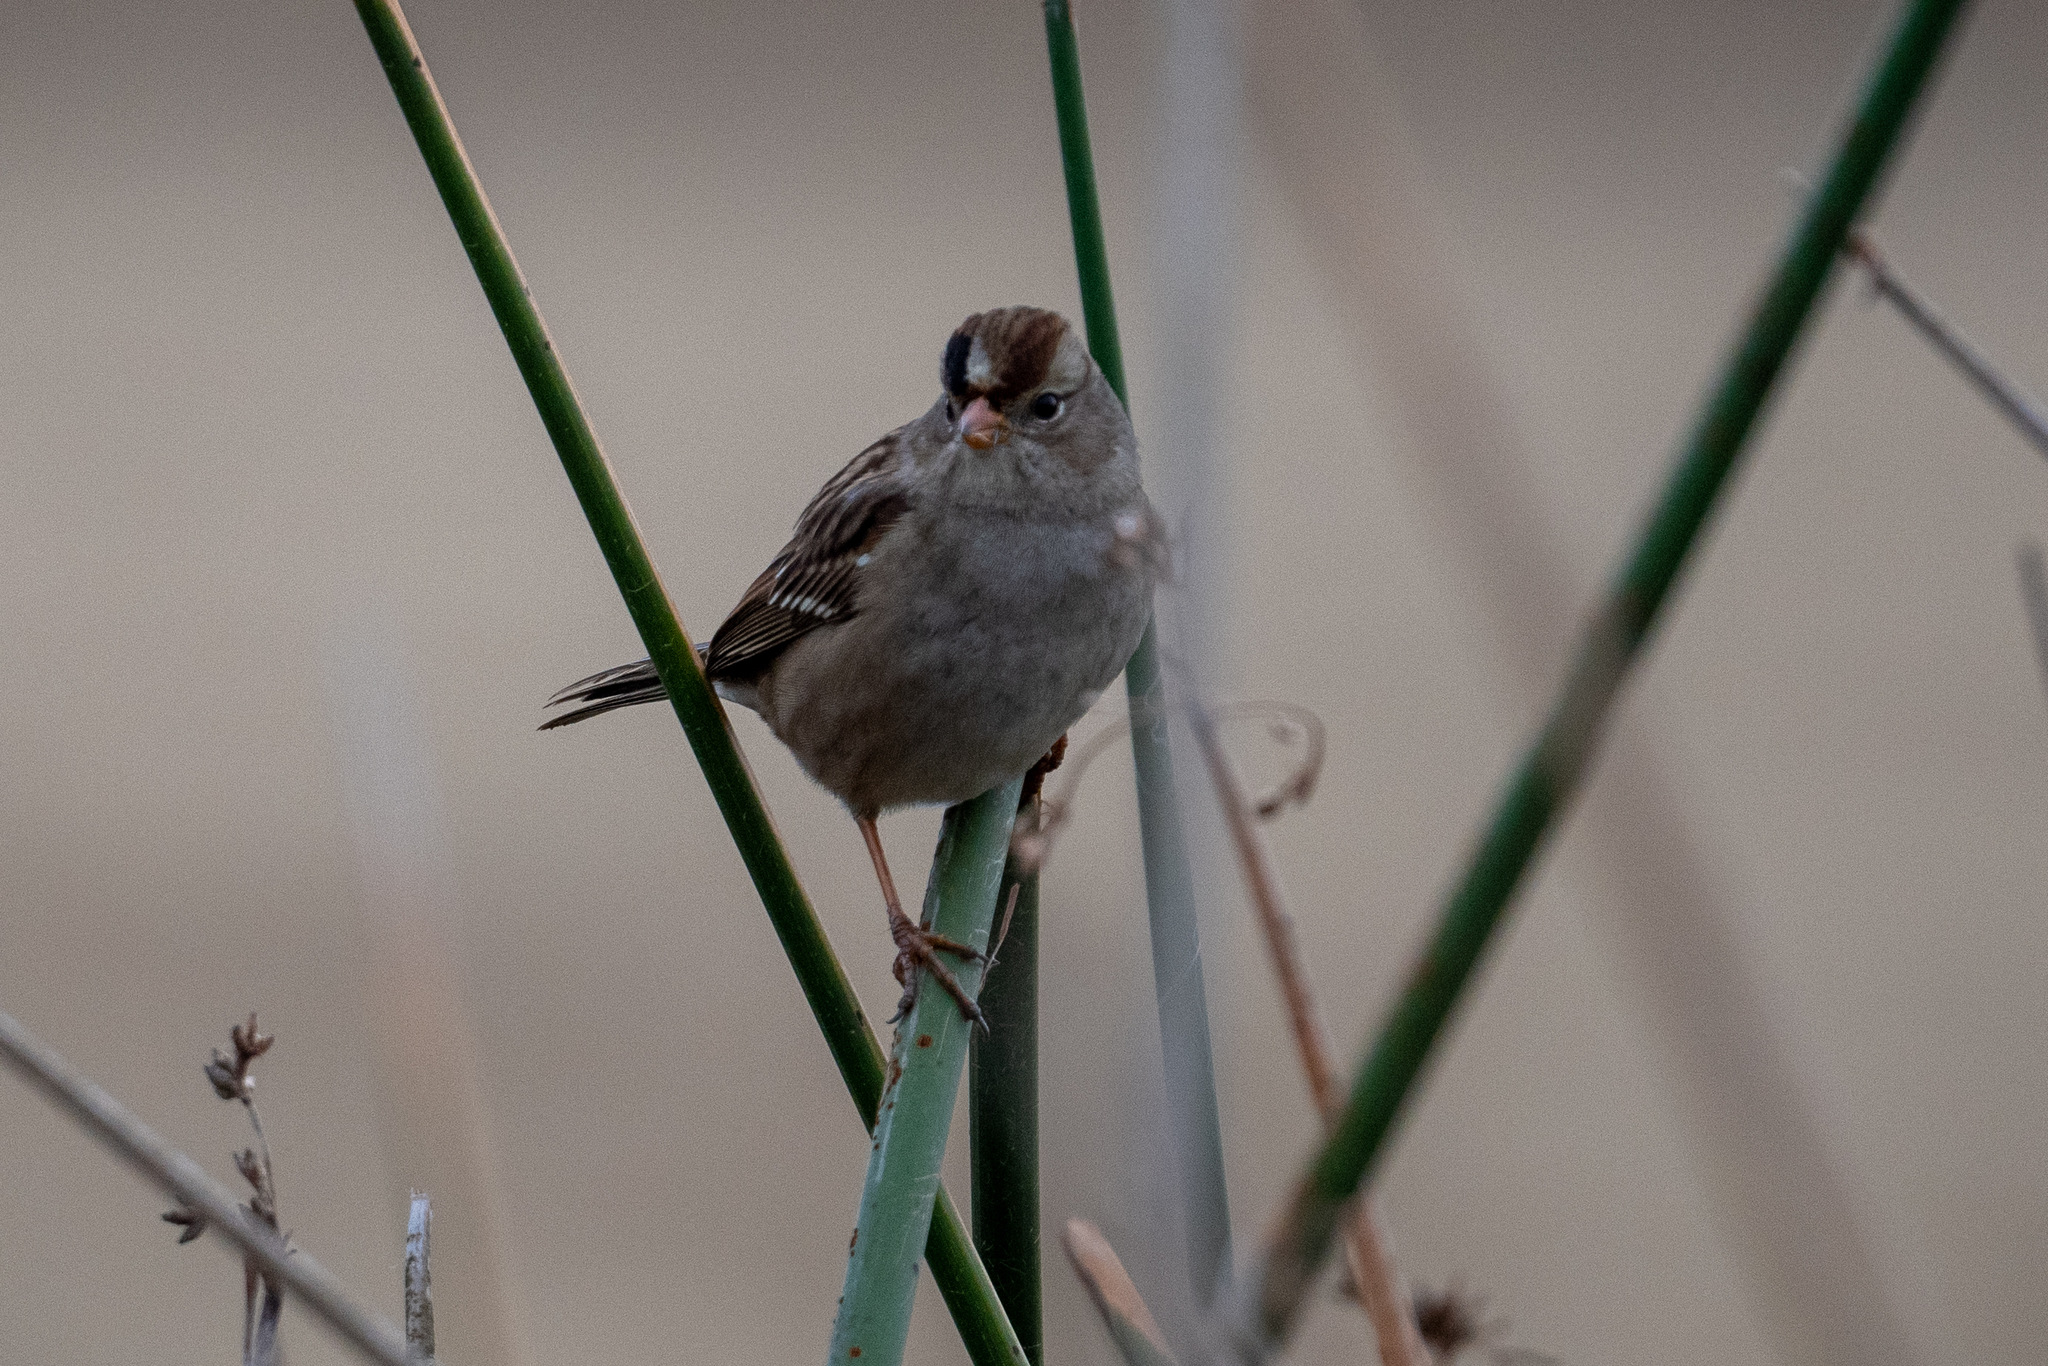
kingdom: Animalia
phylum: Chordata
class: Aves
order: Passeriformes
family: Passerellidae
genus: Zonotrichia
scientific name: Zonotrichia leucophrys
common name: White-crowned sparrow
